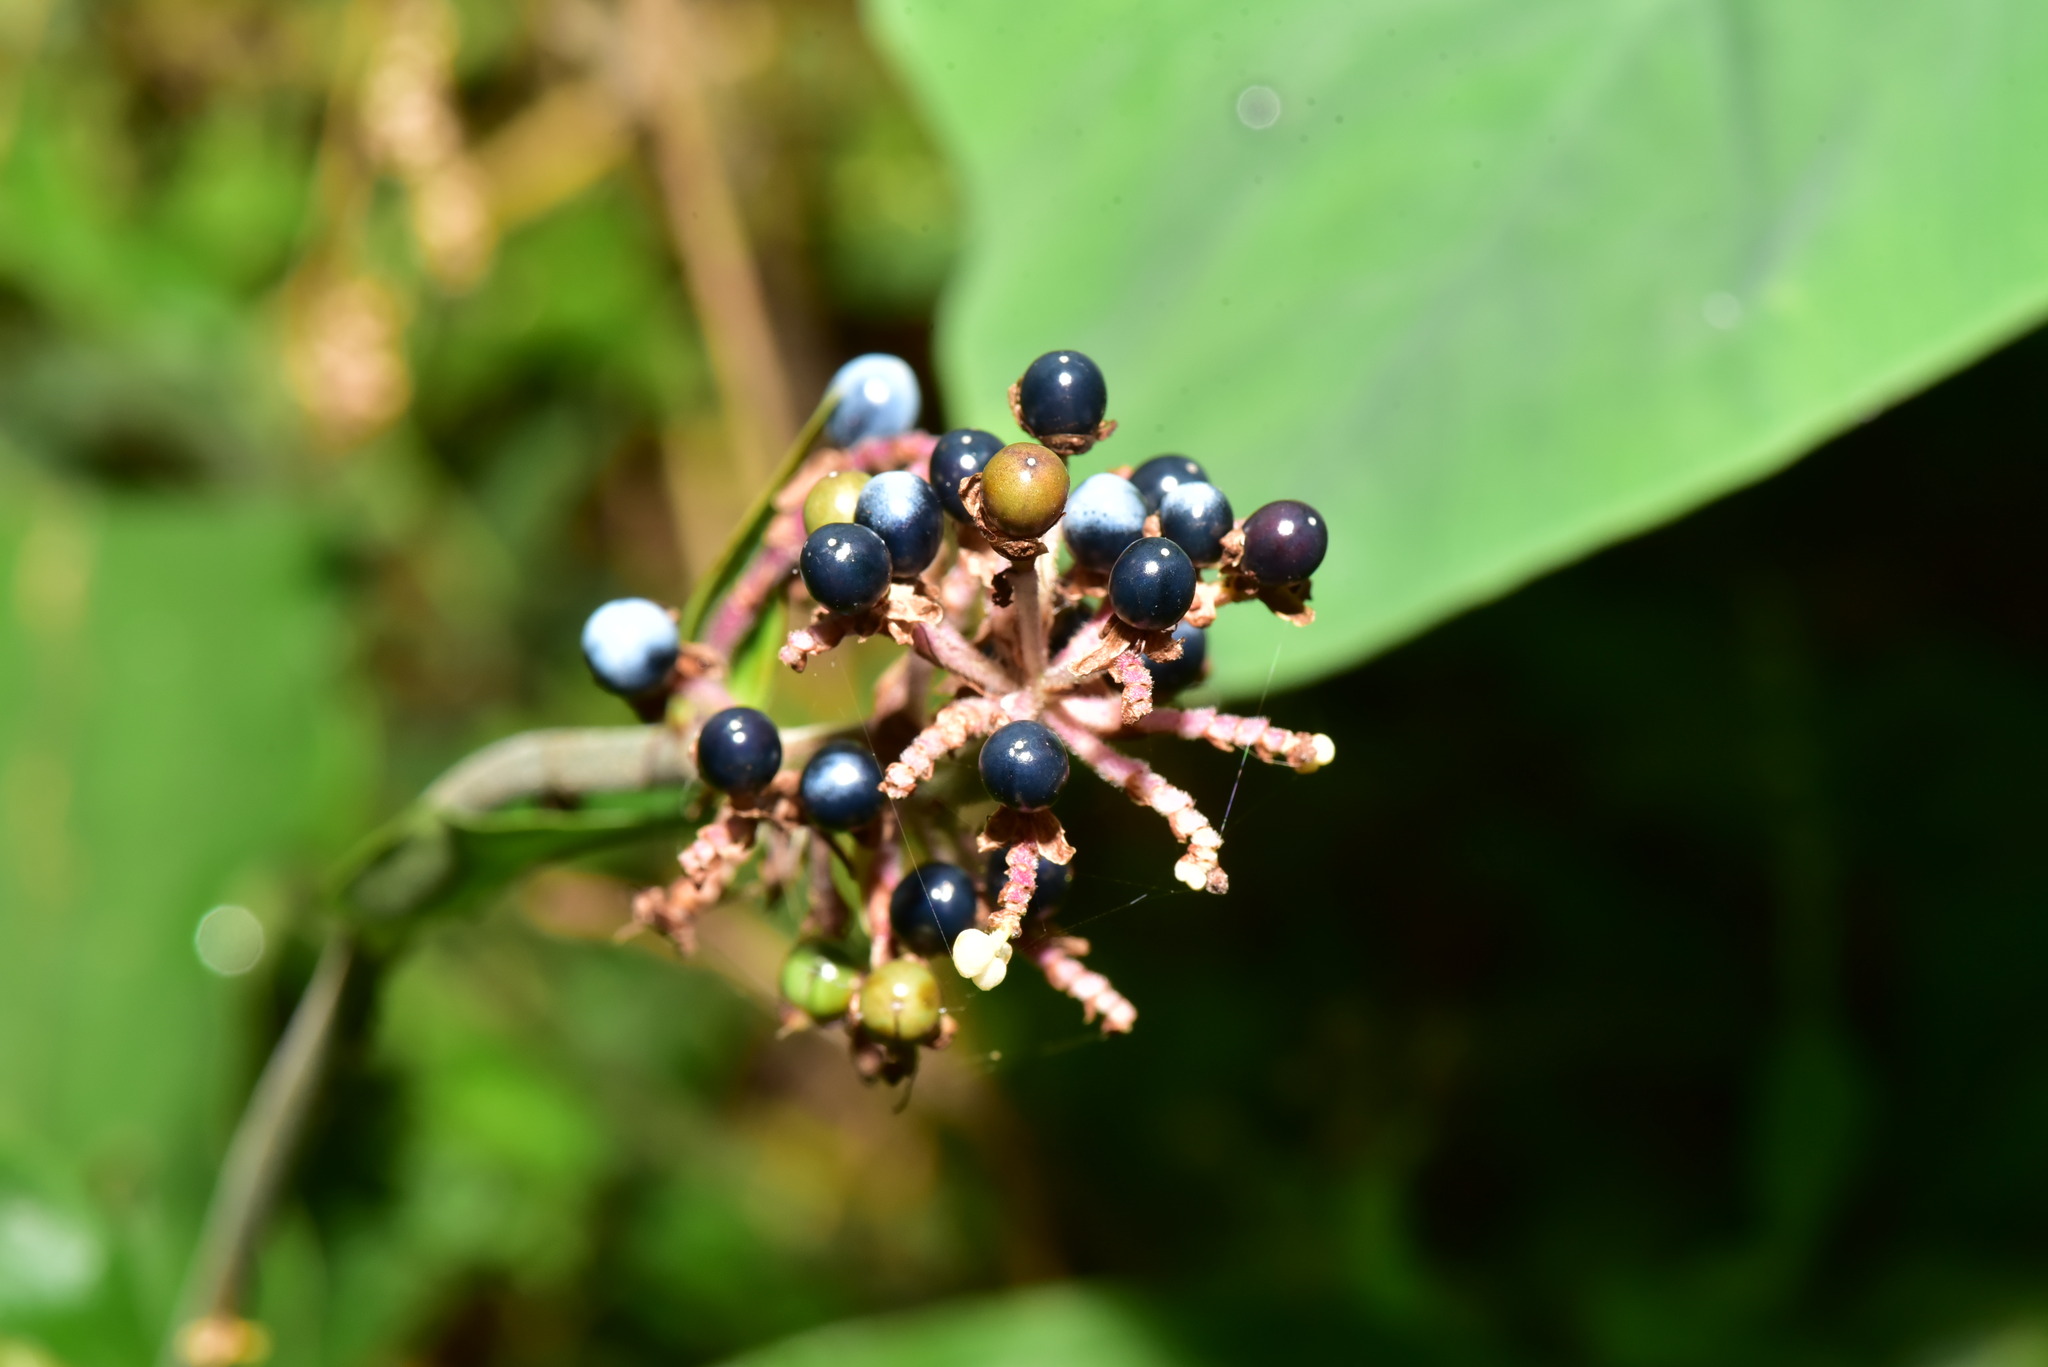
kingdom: Plantae
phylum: Tracheophyta
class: Liliopsida
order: Commelinales
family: Commelinaceae
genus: Pollia
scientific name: Pollia japonica
